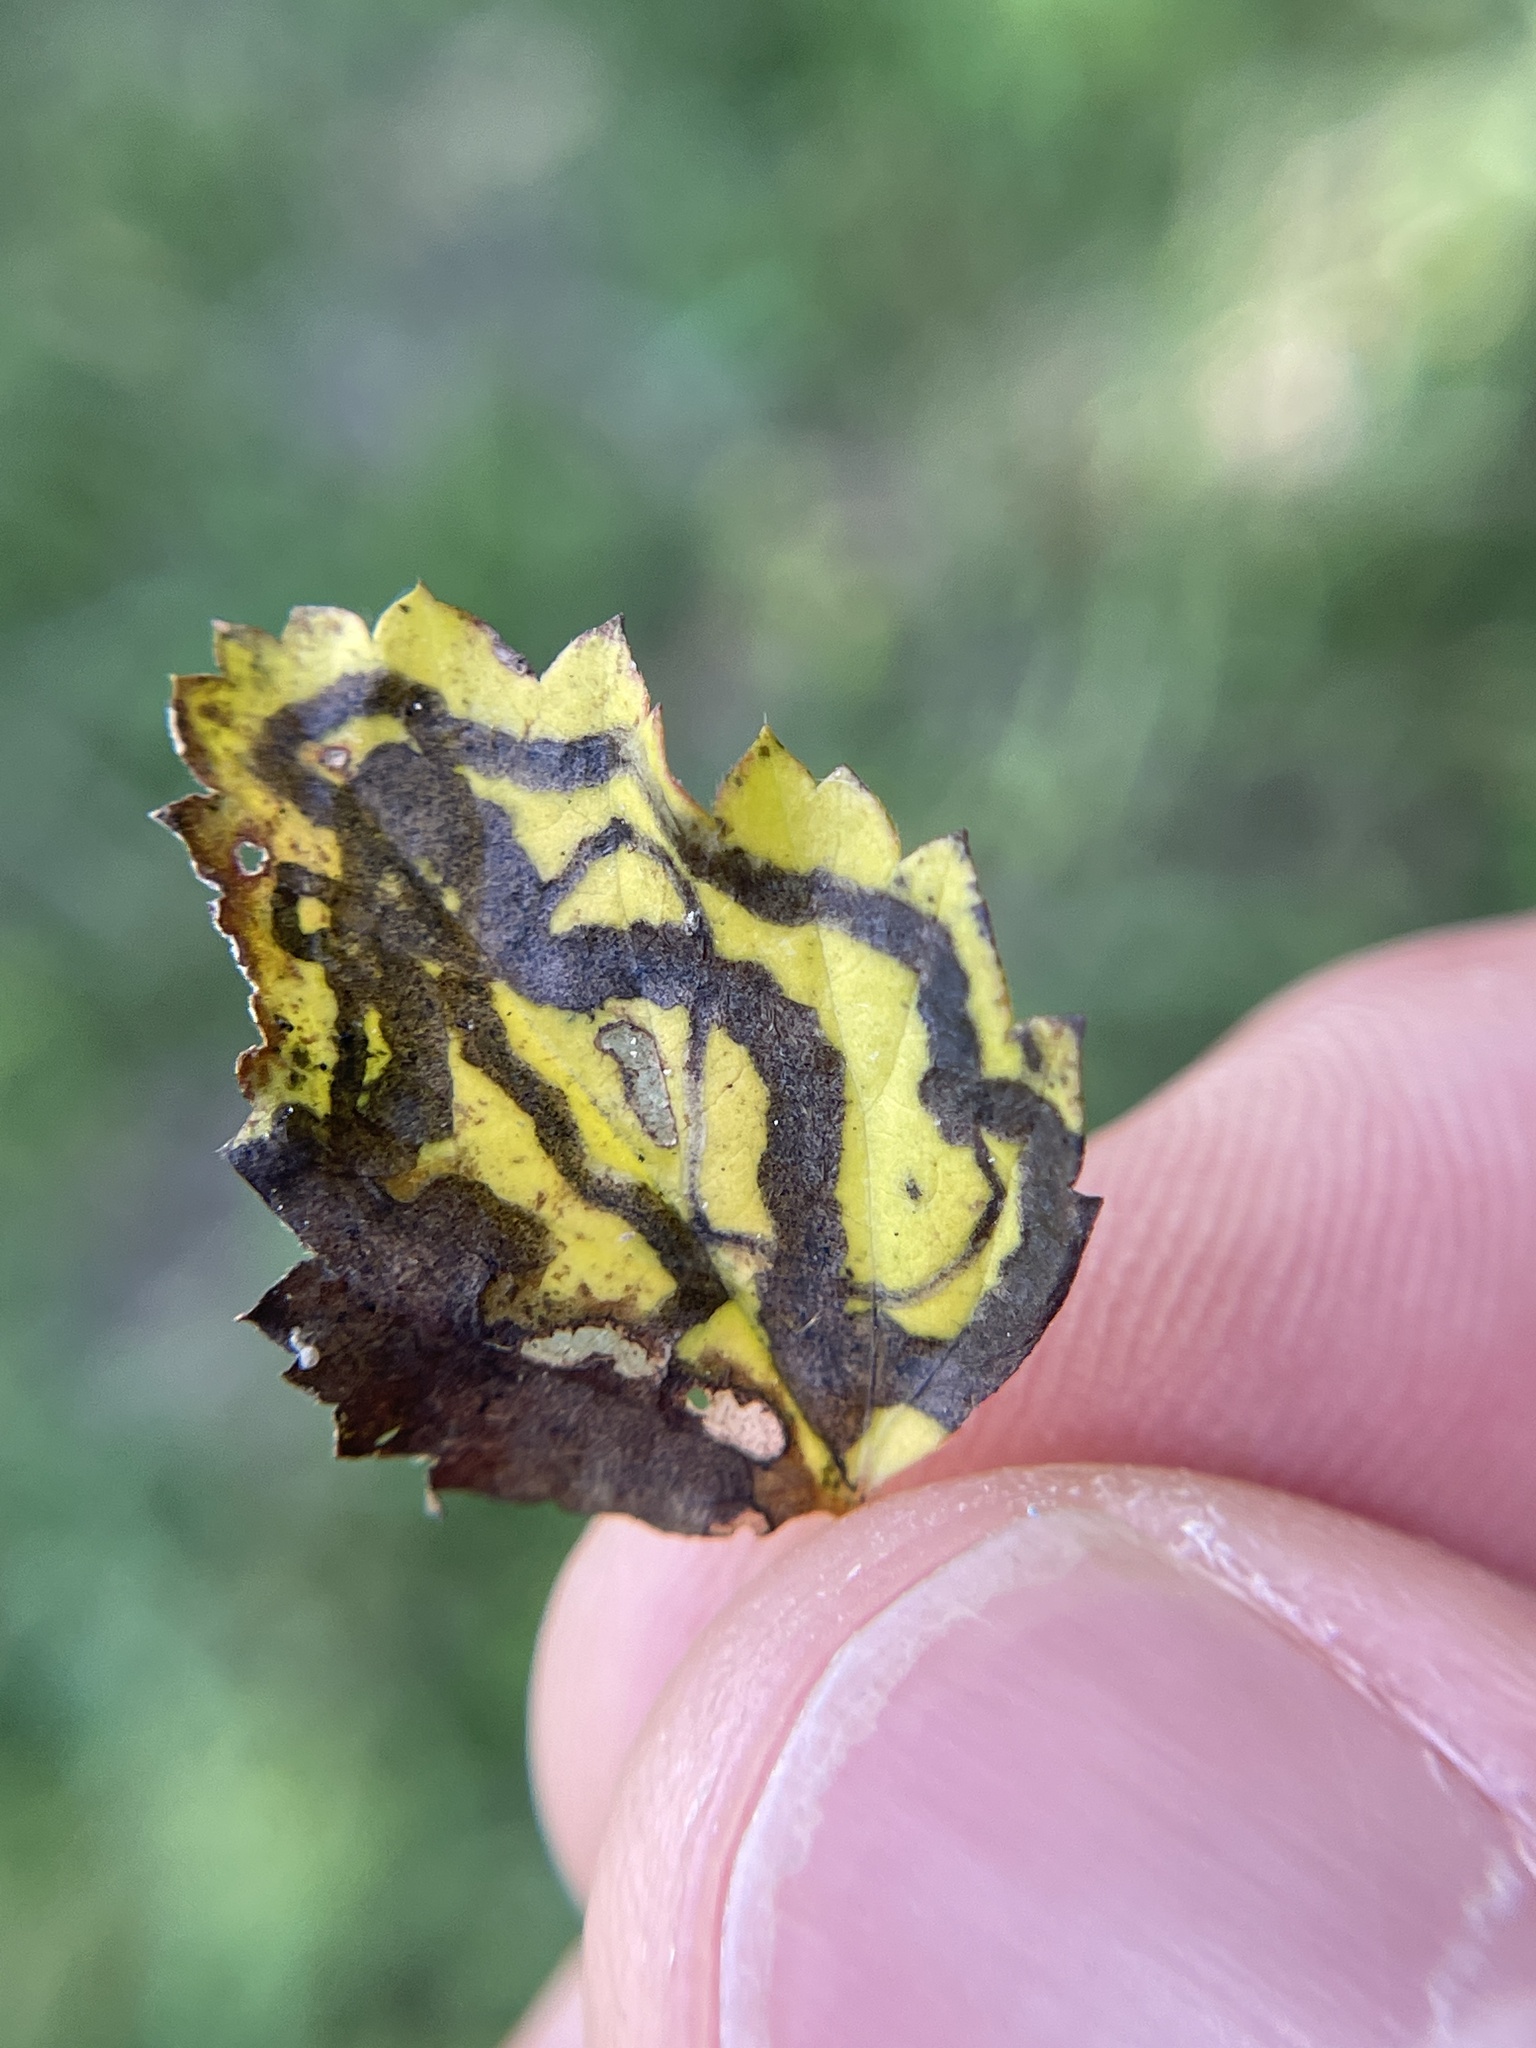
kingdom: Animalia
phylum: Arthropoda
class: Insecta
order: Diptera
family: Agromyzidae
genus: Calycomyza
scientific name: Calycomyza malvae
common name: Mallow leaf miner
